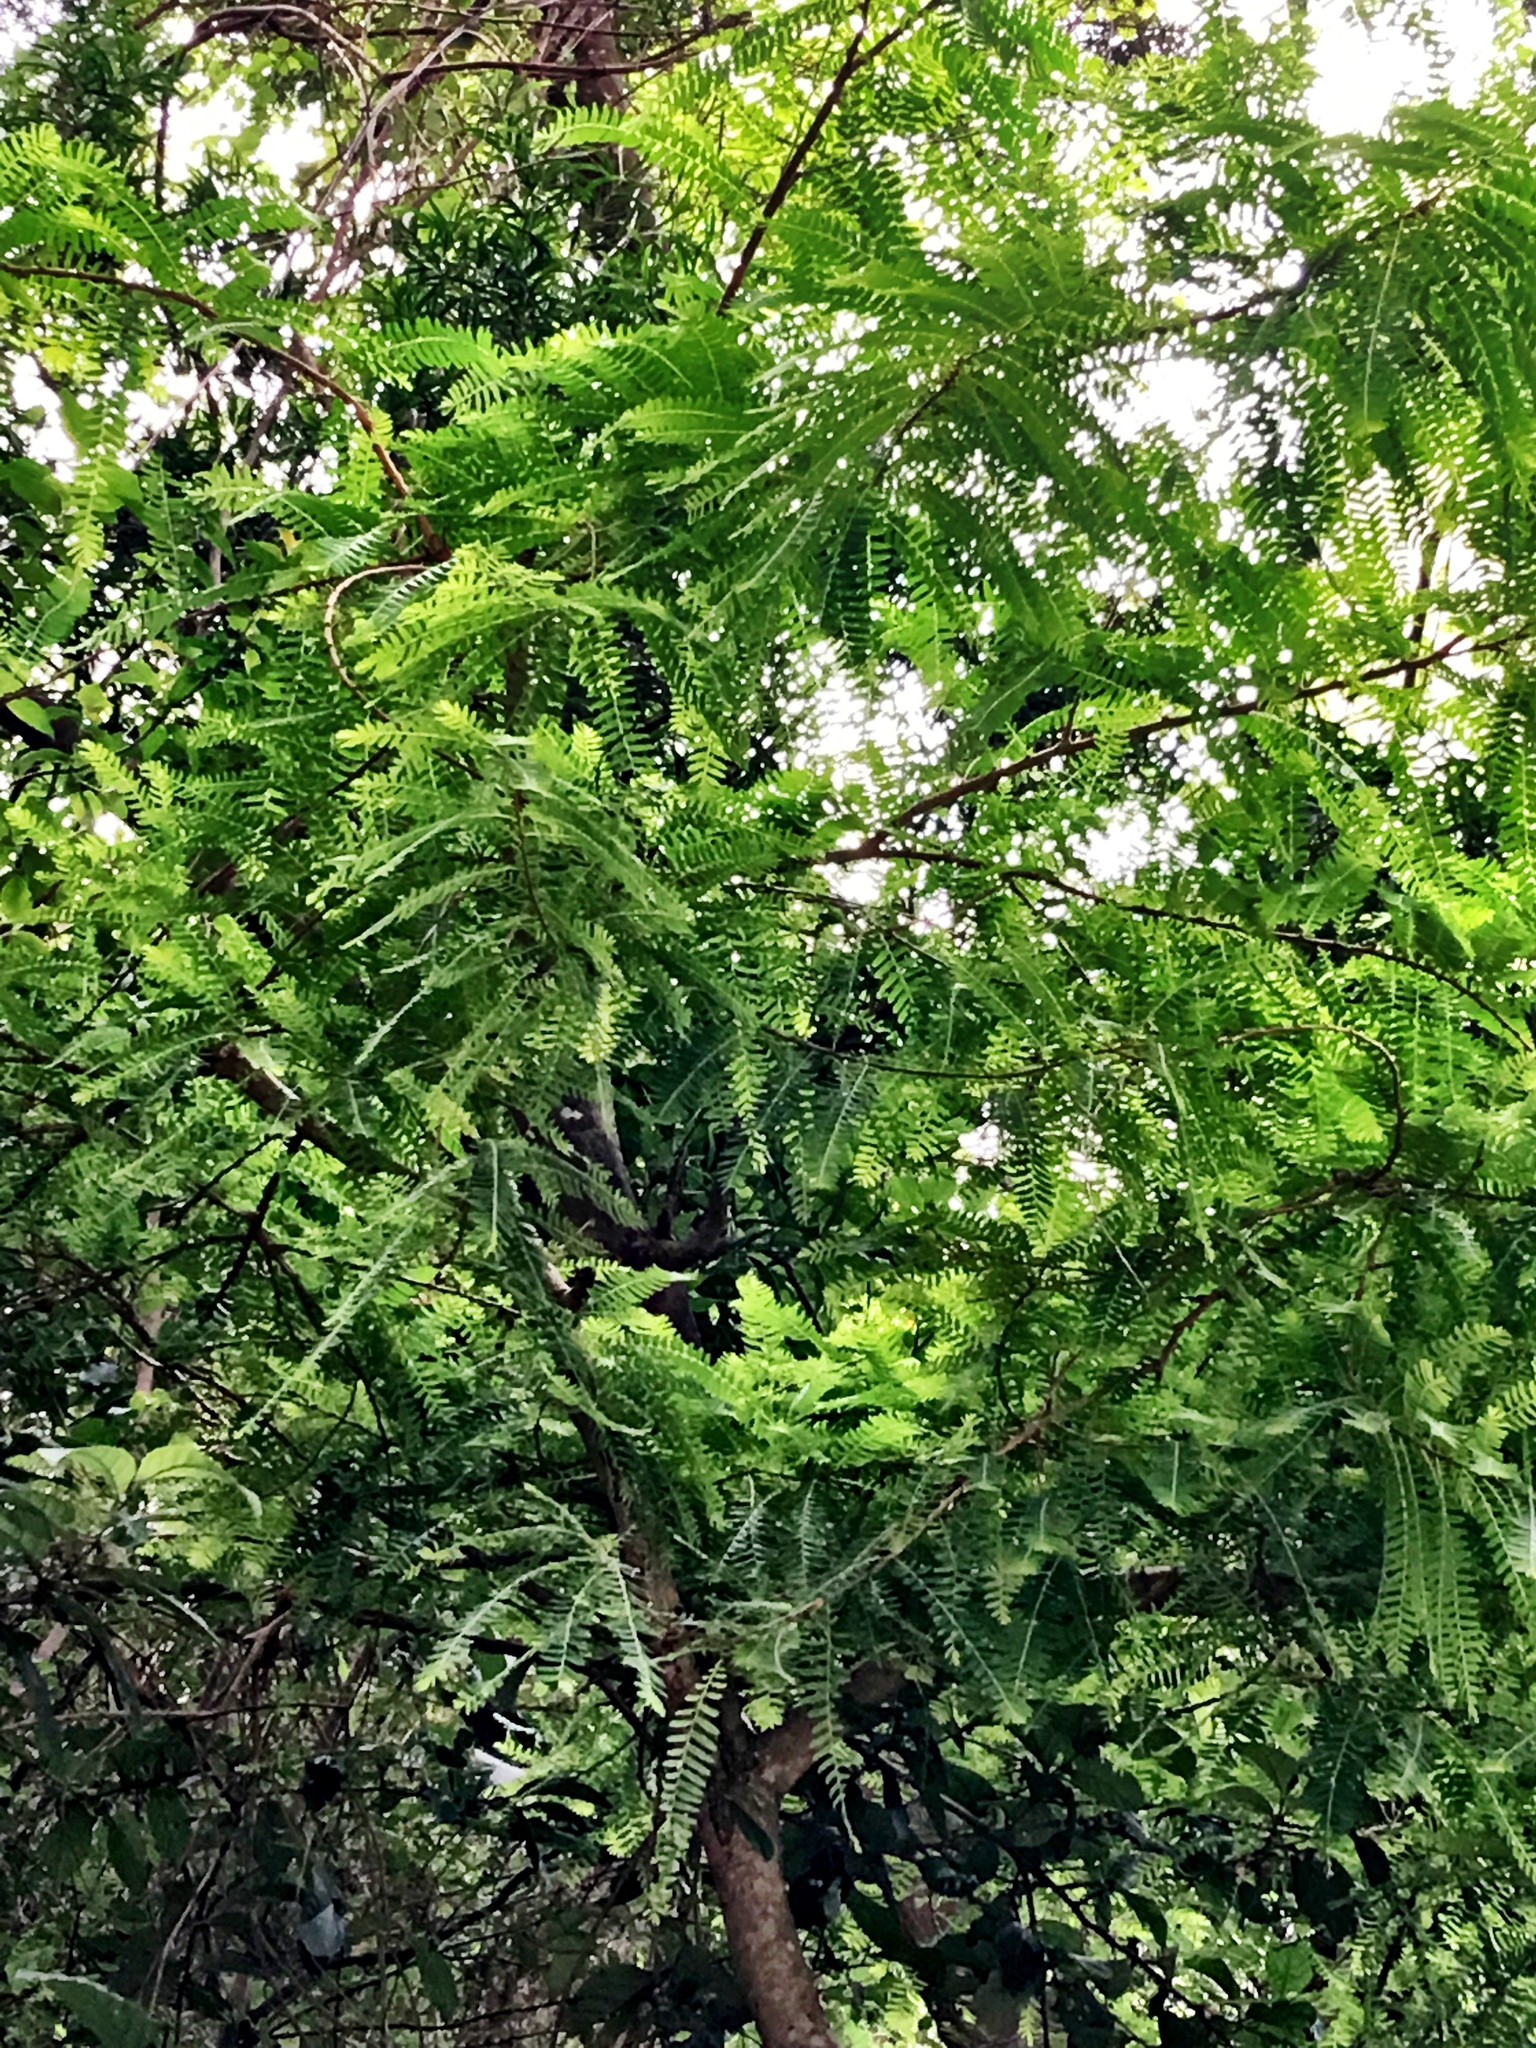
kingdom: Plantae
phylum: Tracheophyta
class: Magnoliopsida
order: Malpighiales
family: Phyllanthaceae
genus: Phyllanthus
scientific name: Phyllanthus emblica
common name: Indian gooseberry
